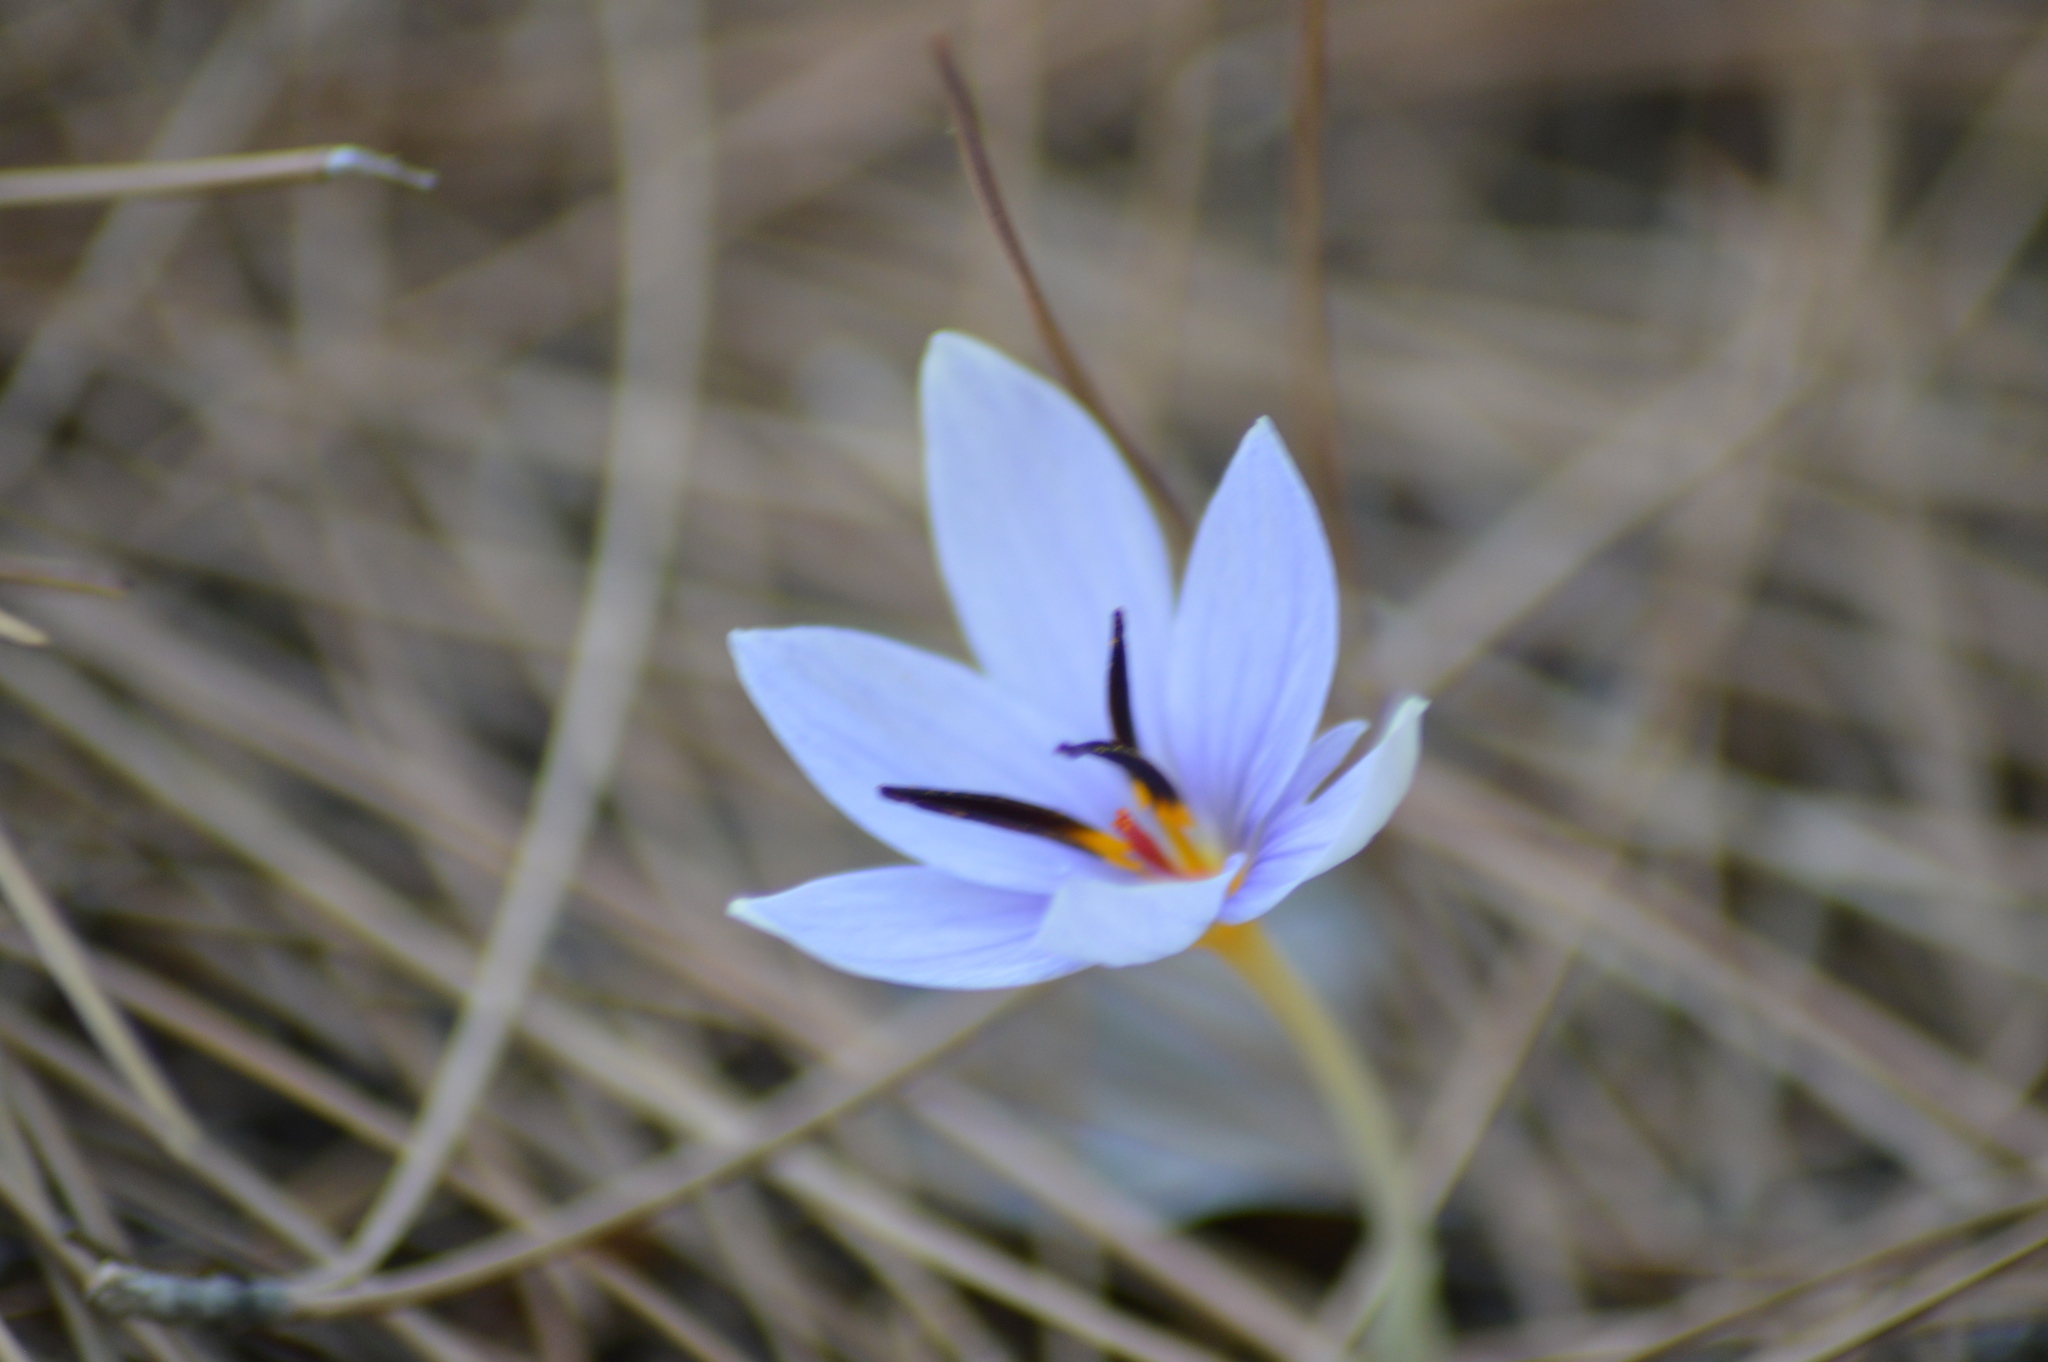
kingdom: Plantae
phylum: Tracheophyta
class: Liliopsida
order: Asparagales
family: Iridaceae
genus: Crocus
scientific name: Crocus nerimaniae
